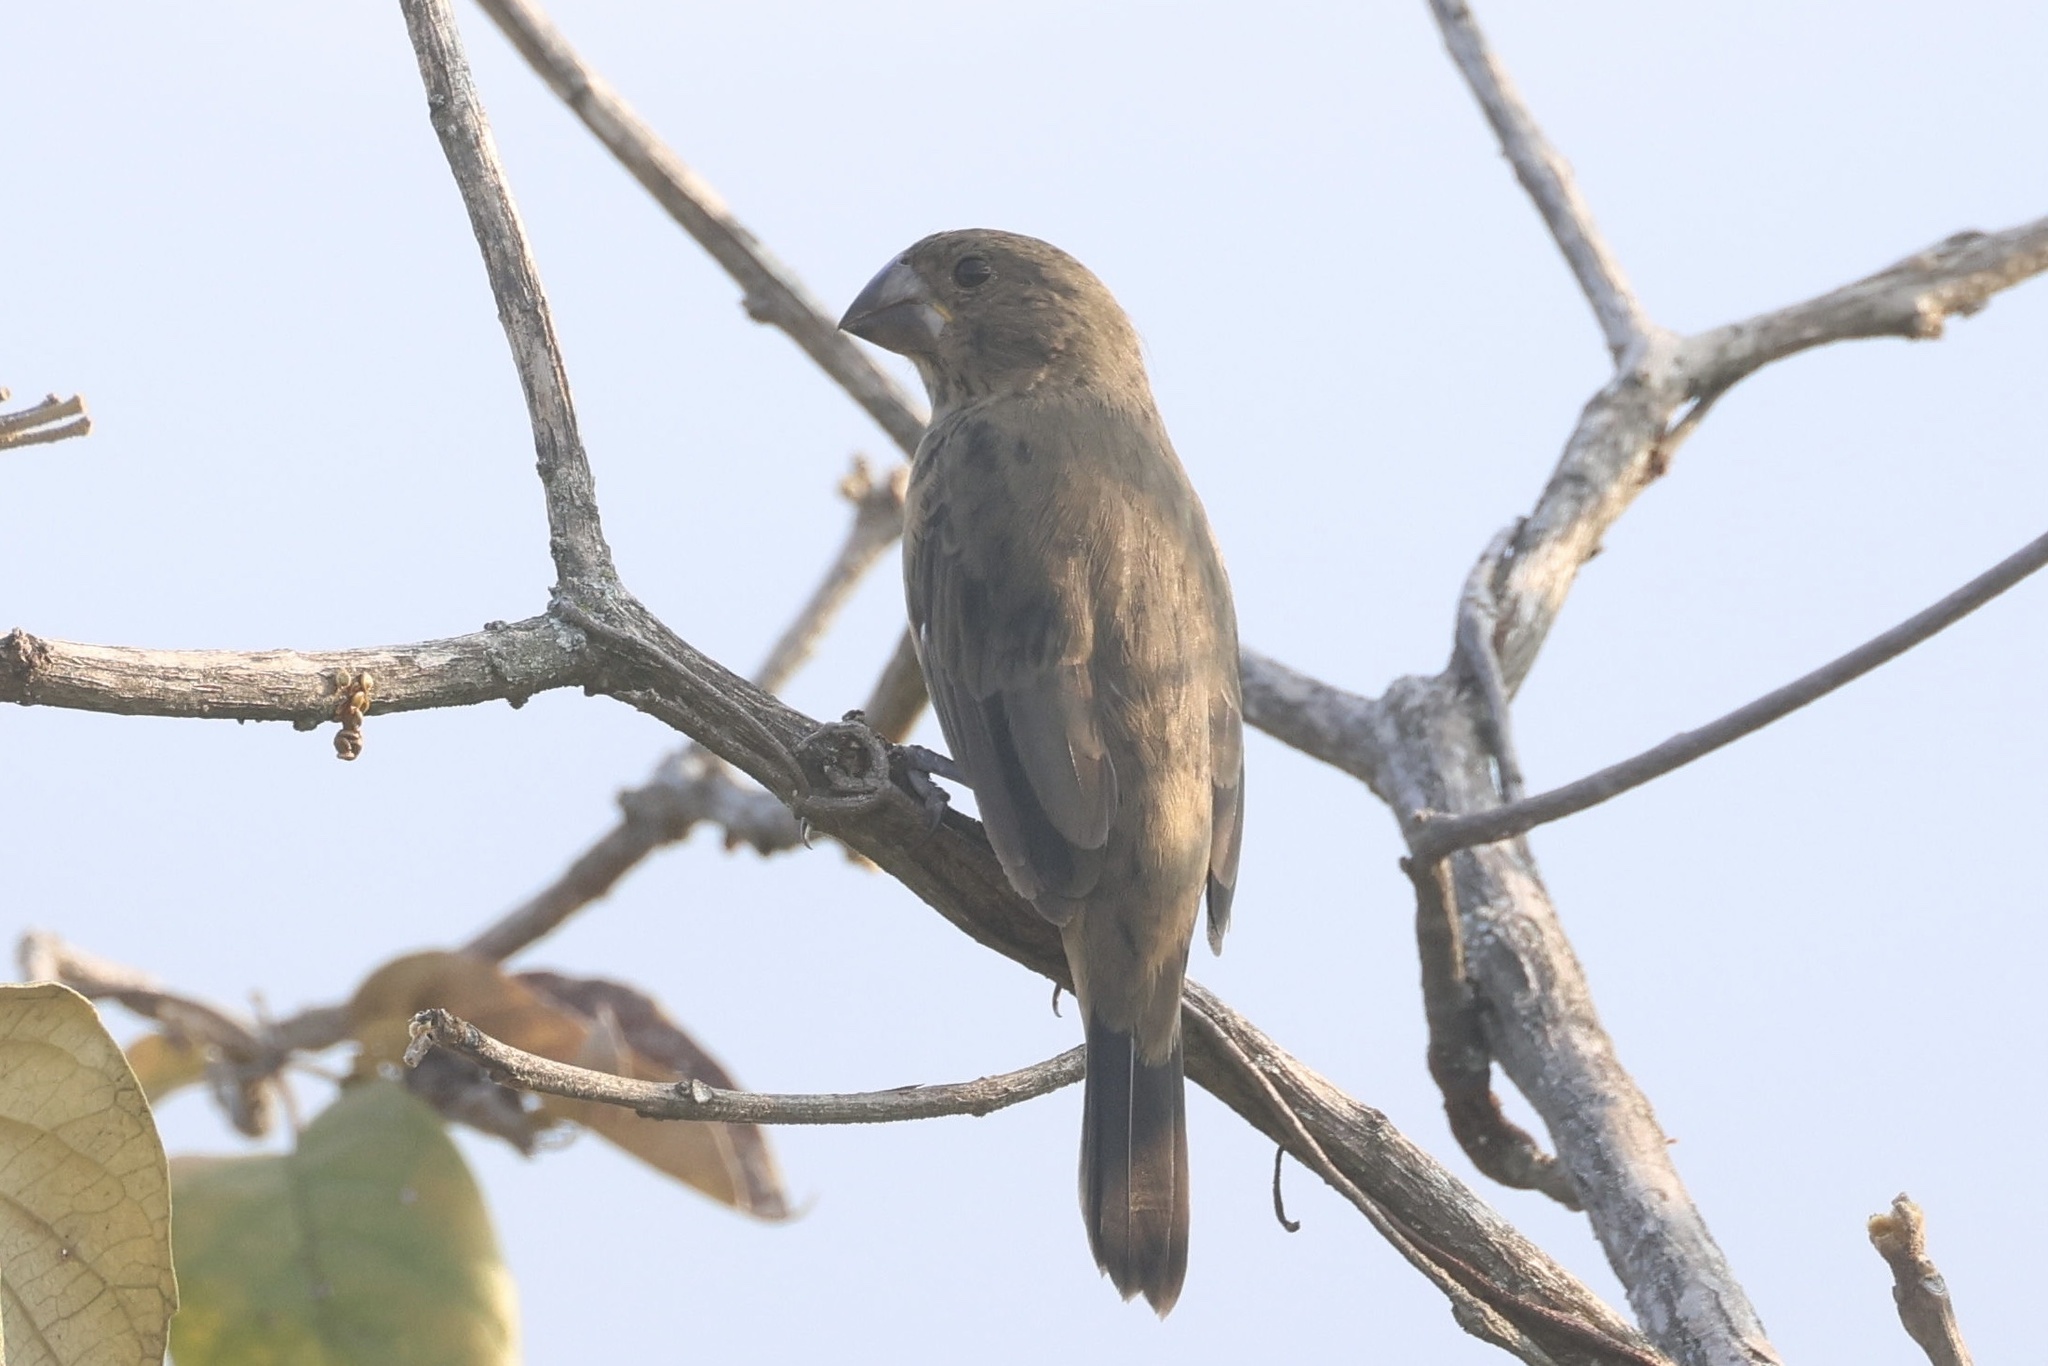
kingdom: Animalia
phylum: Chordata
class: Aves
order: Passeriformes
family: Thraupidae
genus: Sporophila
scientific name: Sporophila crassirostris
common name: Large-billed seed-finch
